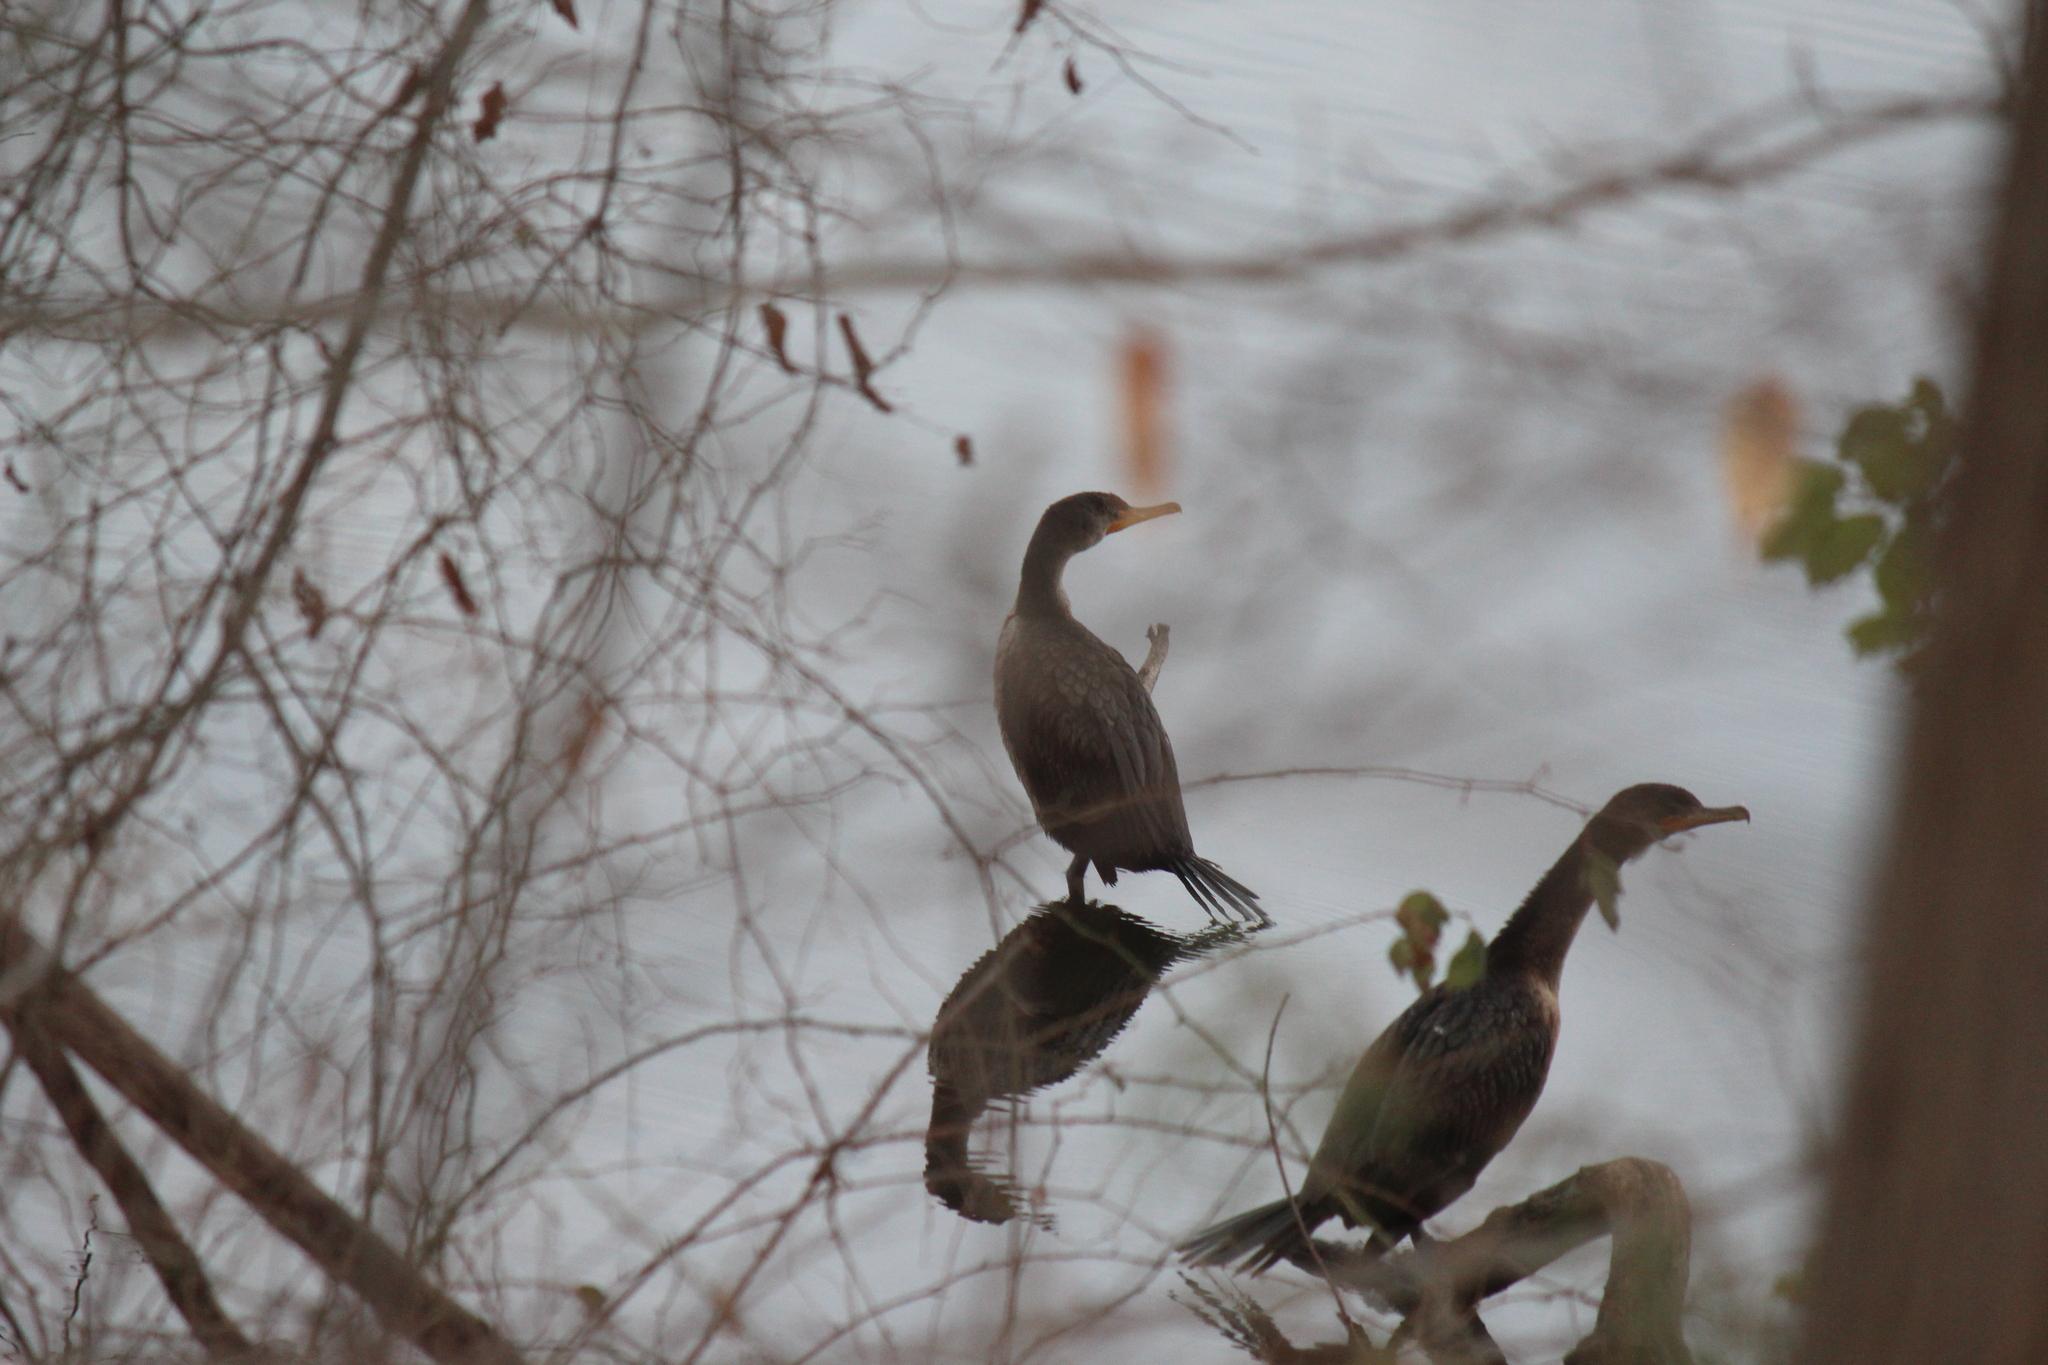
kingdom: Animalia
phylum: Chordata
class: Aves
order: Suliformes
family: Phalacrocoracidae
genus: Phalacrocorax
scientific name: Phalacrocorax auritus
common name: Double-crested cormorant
